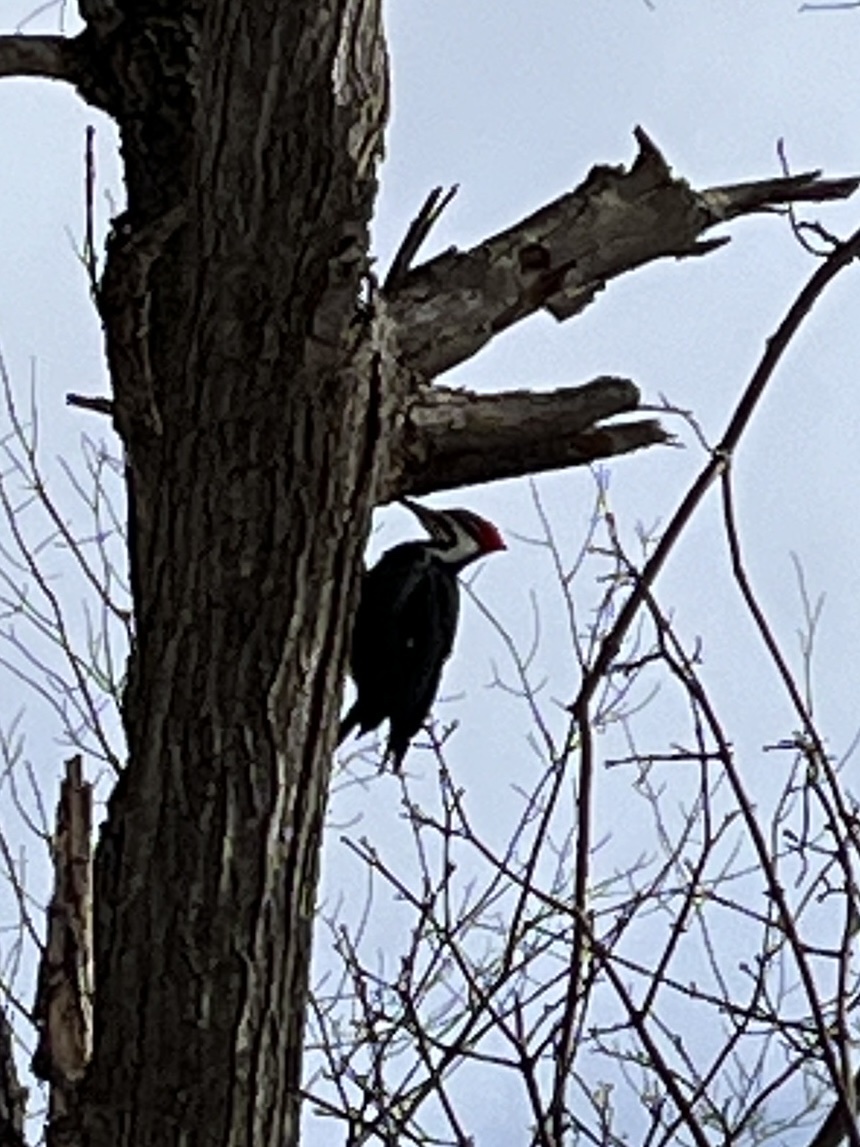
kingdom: Animalia
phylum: Chordata
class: Aves
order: Piciformes
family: Picidae
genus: Dryocopus
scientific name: Dryocopus pileatus
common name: Pileated woodpecker
